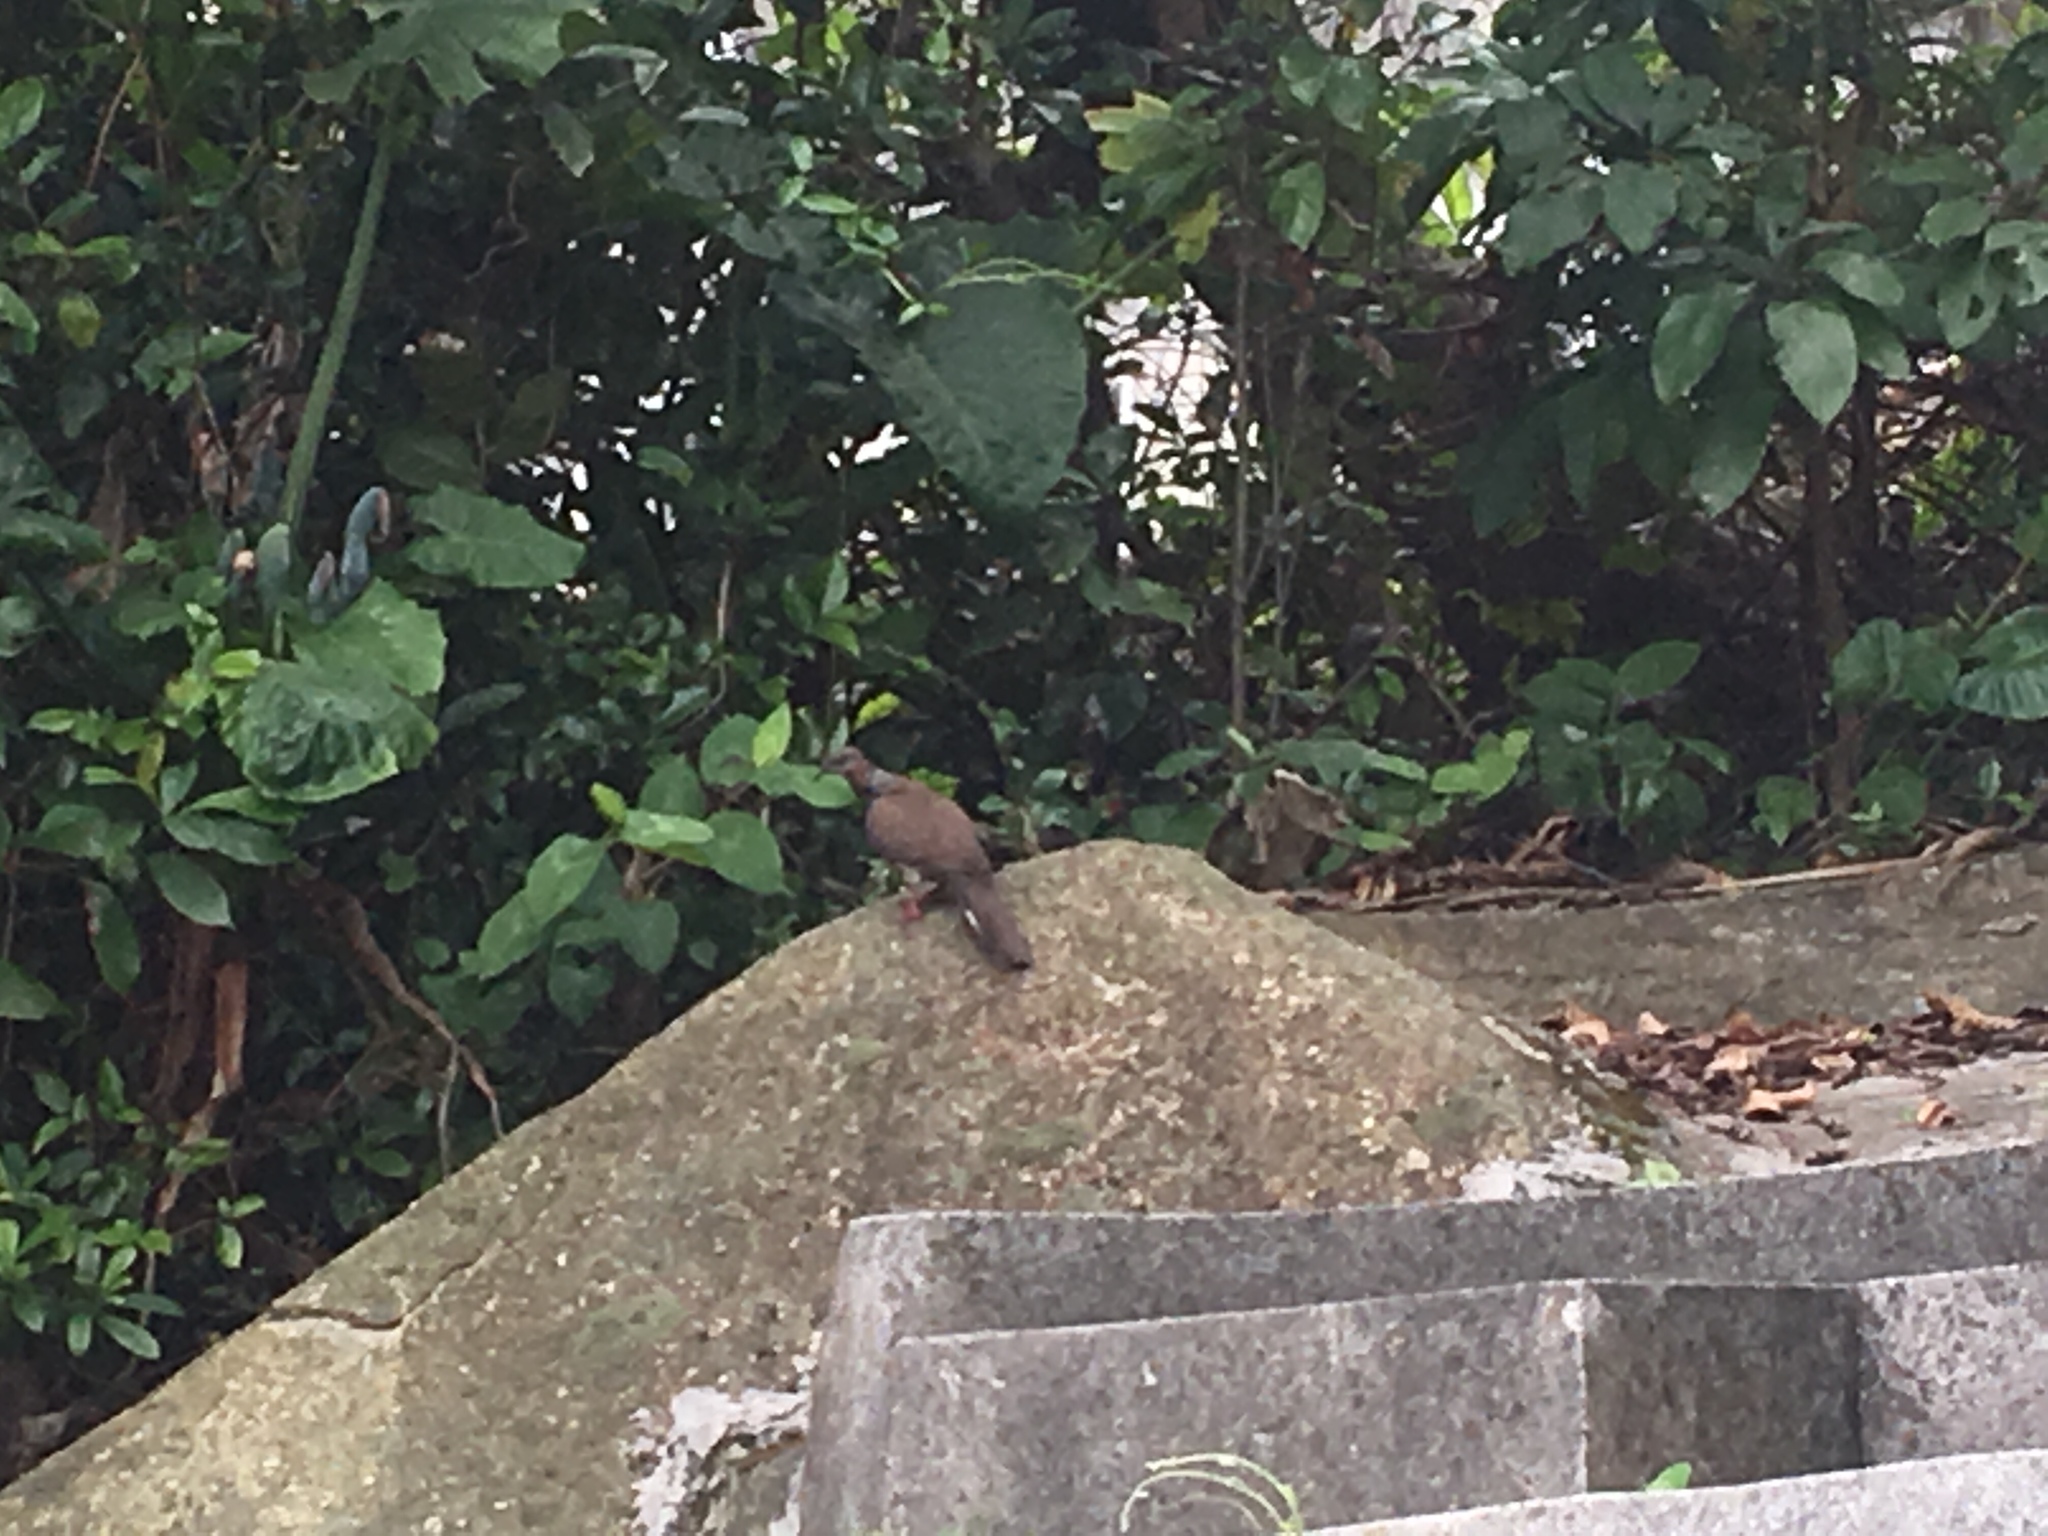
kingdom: Animalia
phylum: Chordata
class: Aves
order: Columbiformes
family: Columbidae
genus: Spilopelia
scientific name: Spilopelia chinensis
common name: Spotted dove
